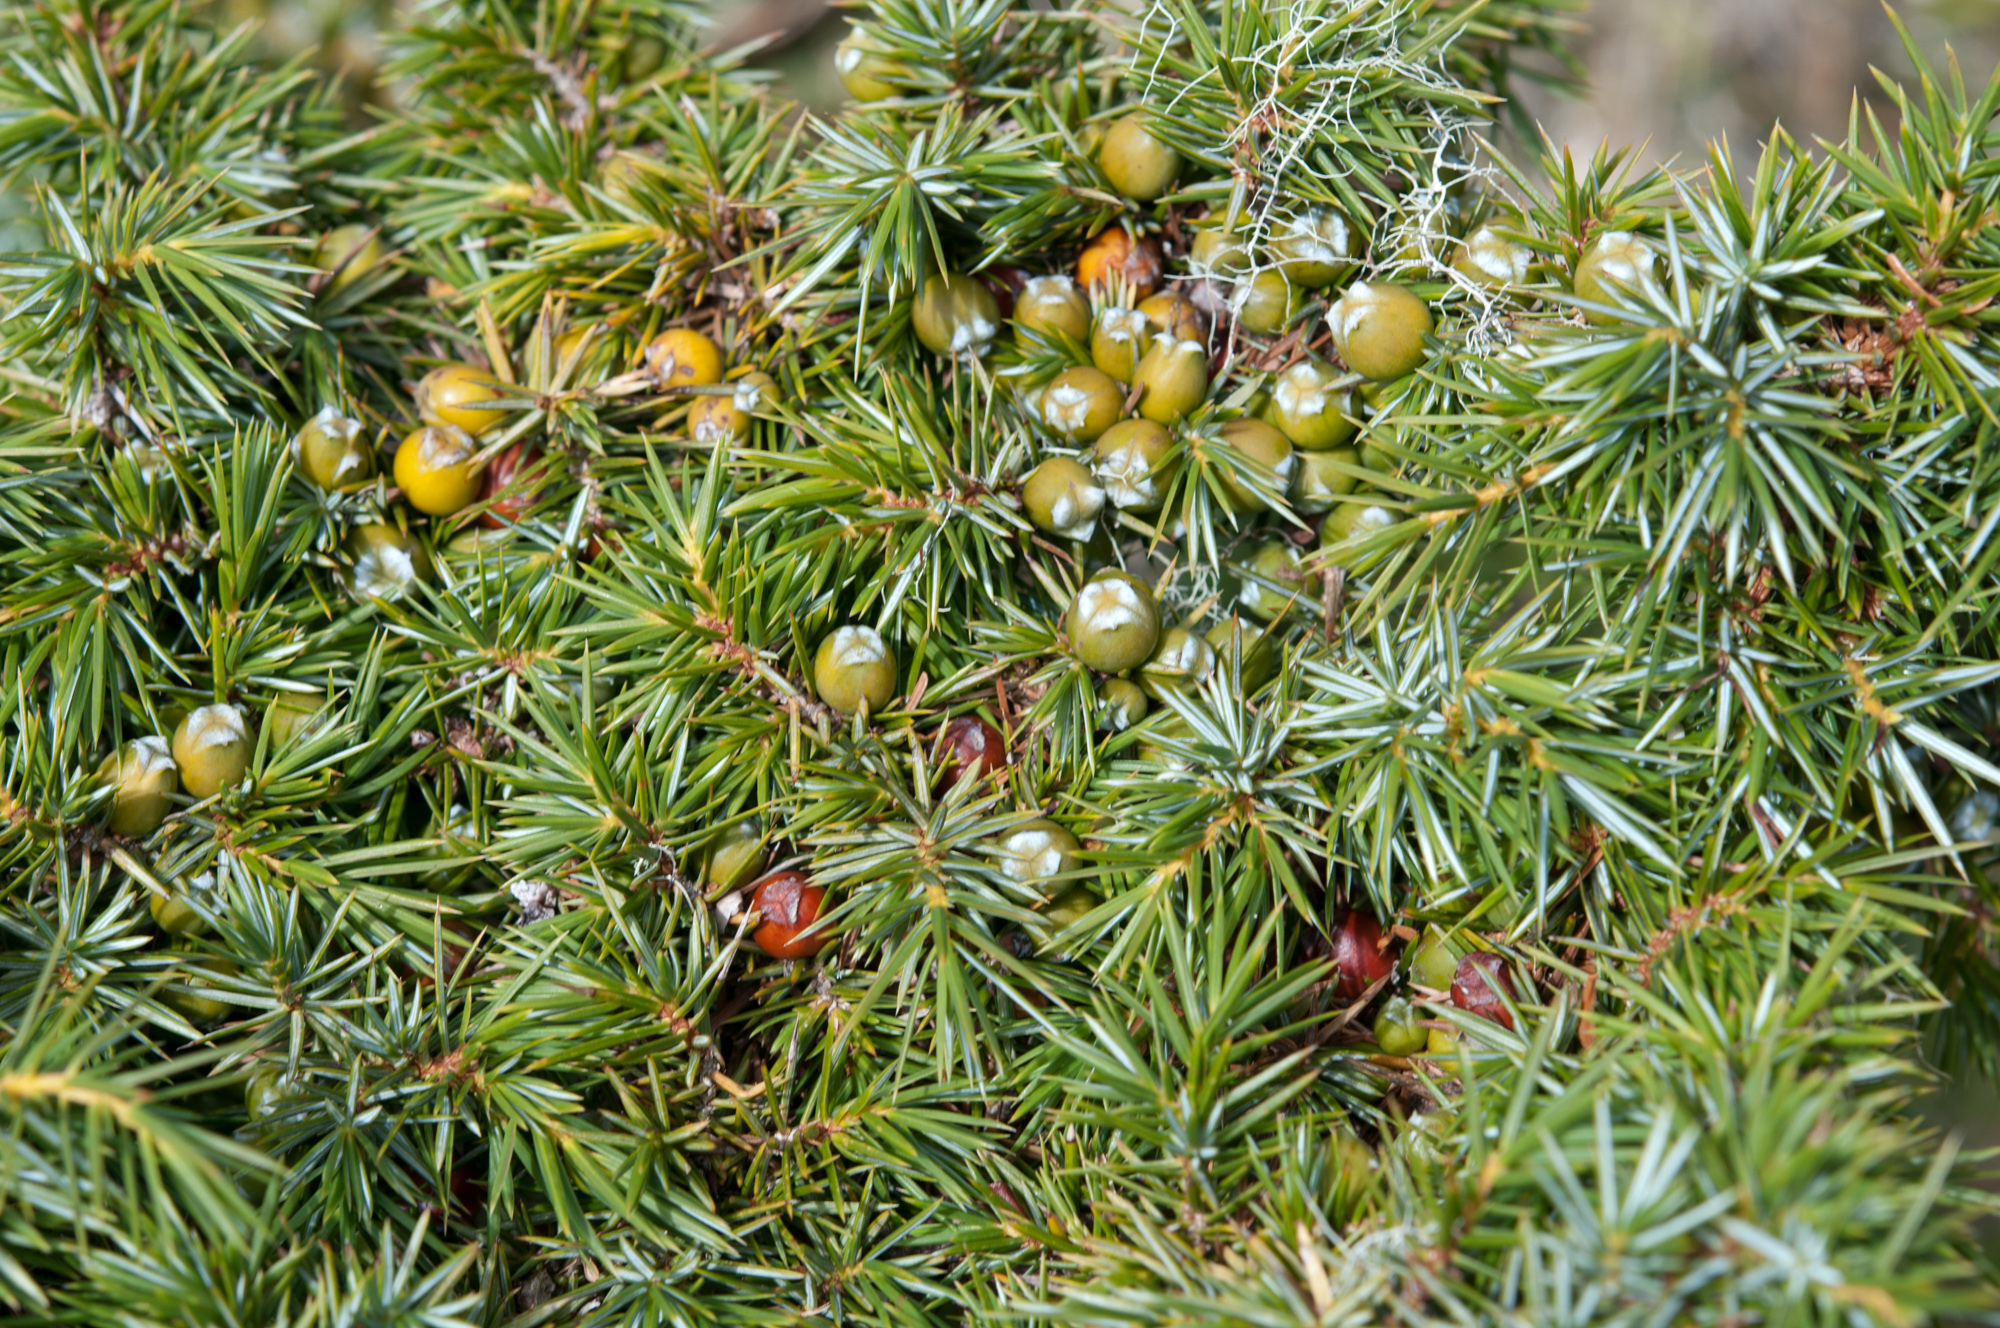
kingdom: Plantae
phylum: Tracheophyta
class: Pinopsida
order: Pinales
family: Cupressaceae
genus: Juniperus
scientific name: Juniperus formosana
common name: Formosan juniper
